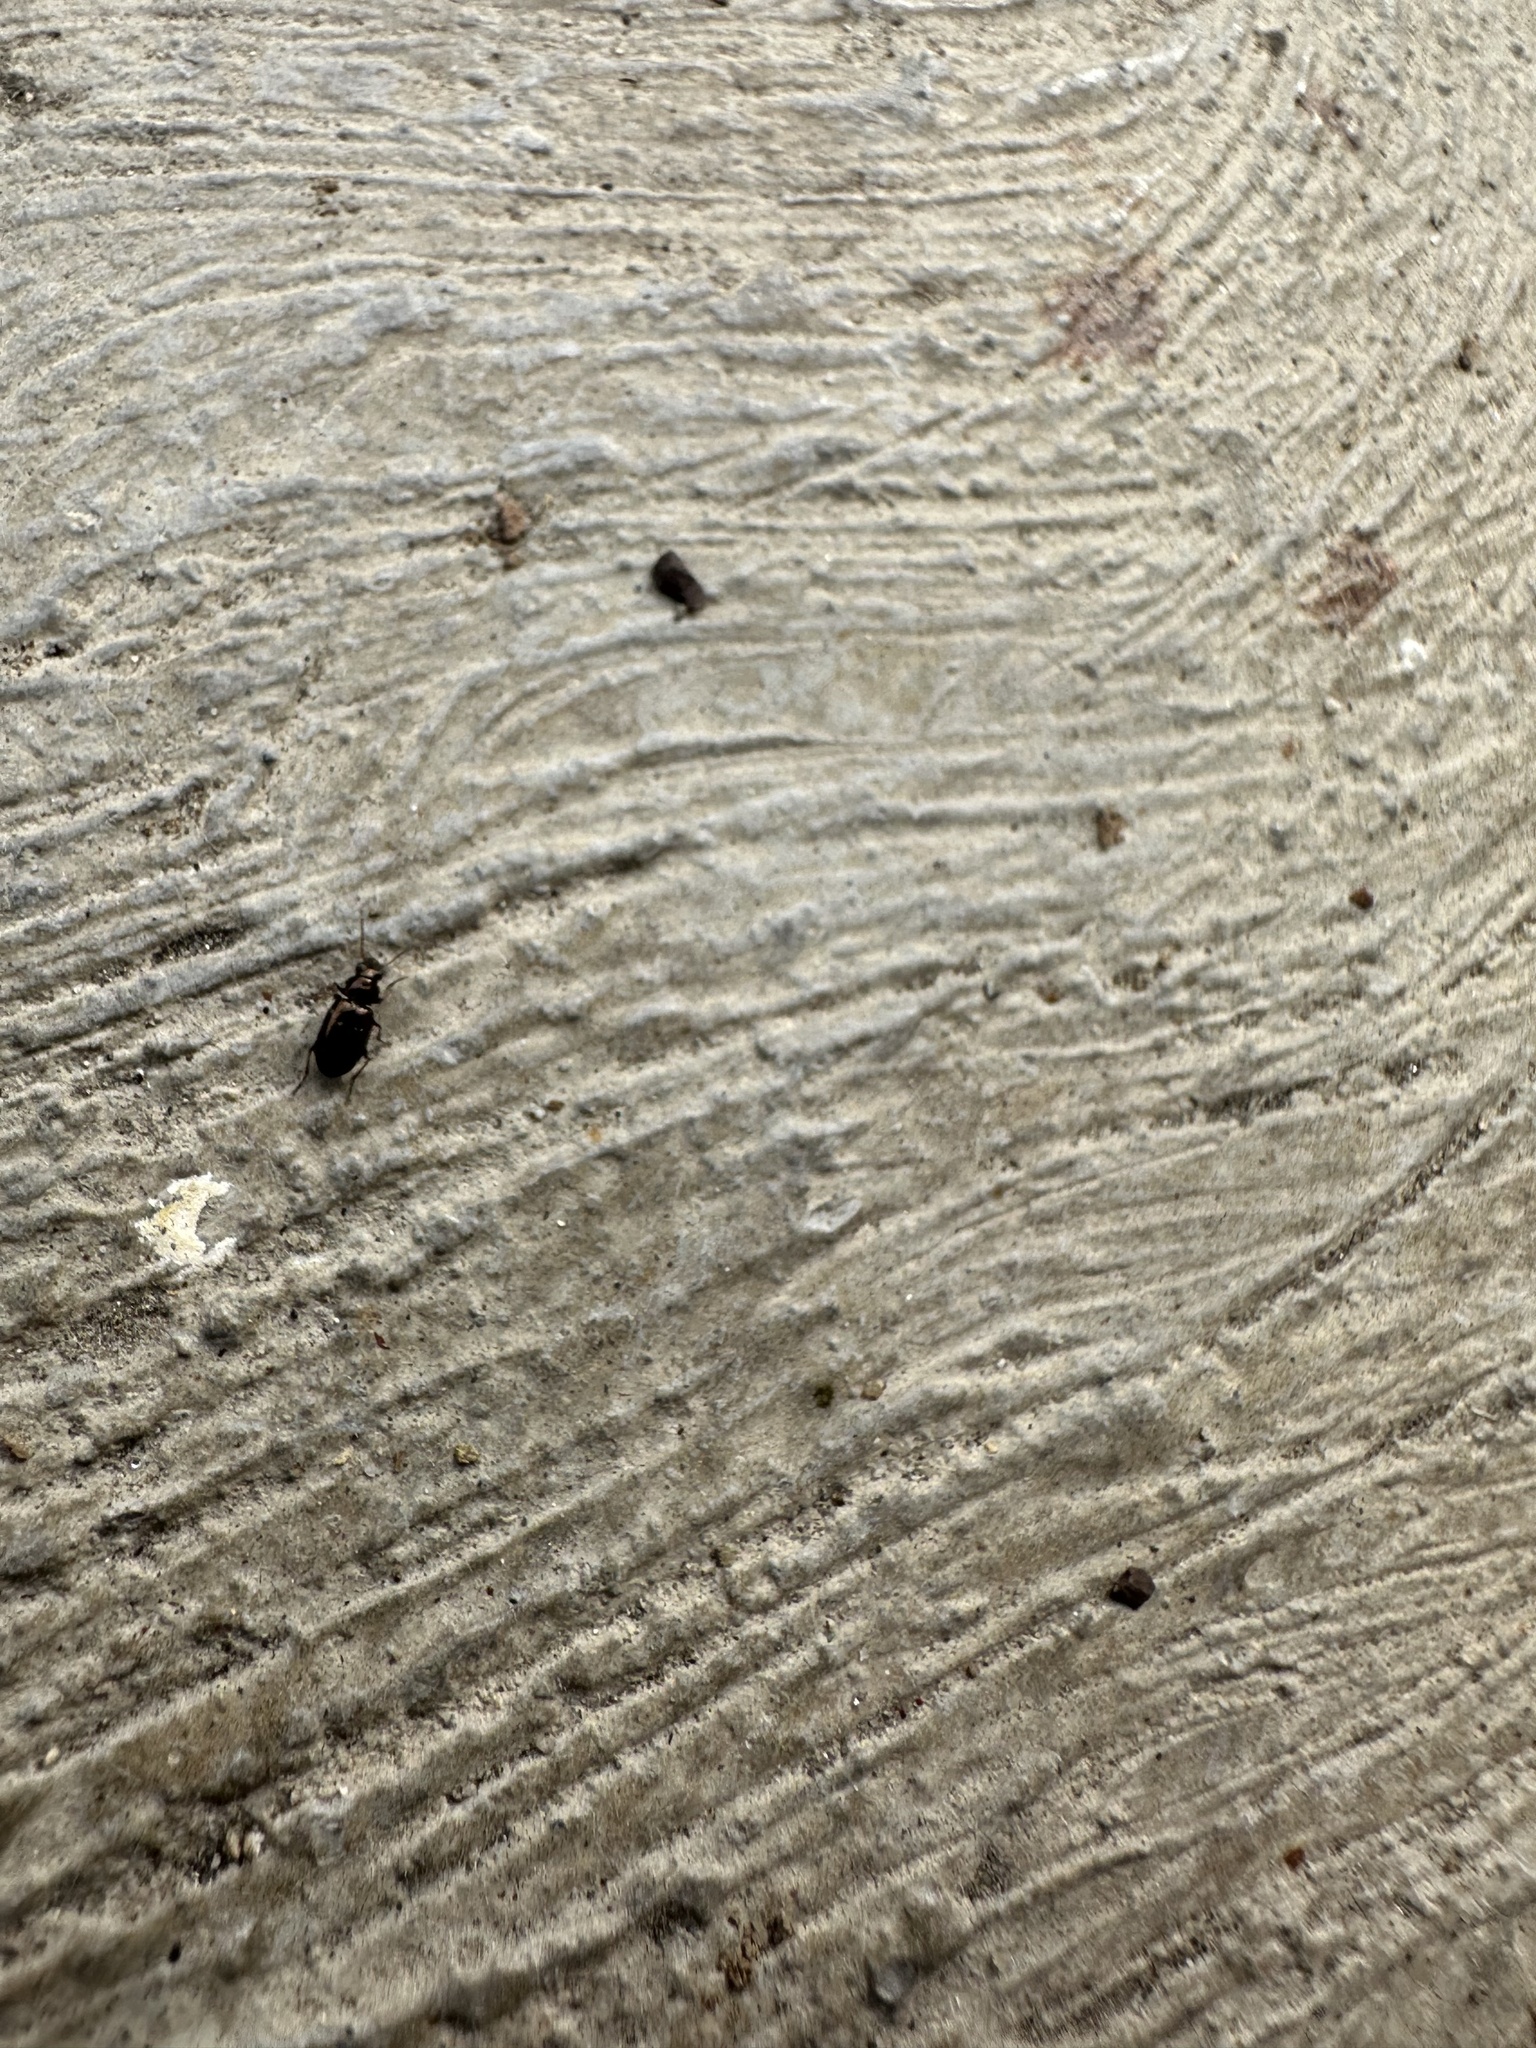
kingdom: Animalia
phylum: Arthropoda
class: Insecta
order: Coleoptera
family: Carabidae
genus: Bembidion
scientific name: Bembidion ambiguum
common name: Ground beetle
